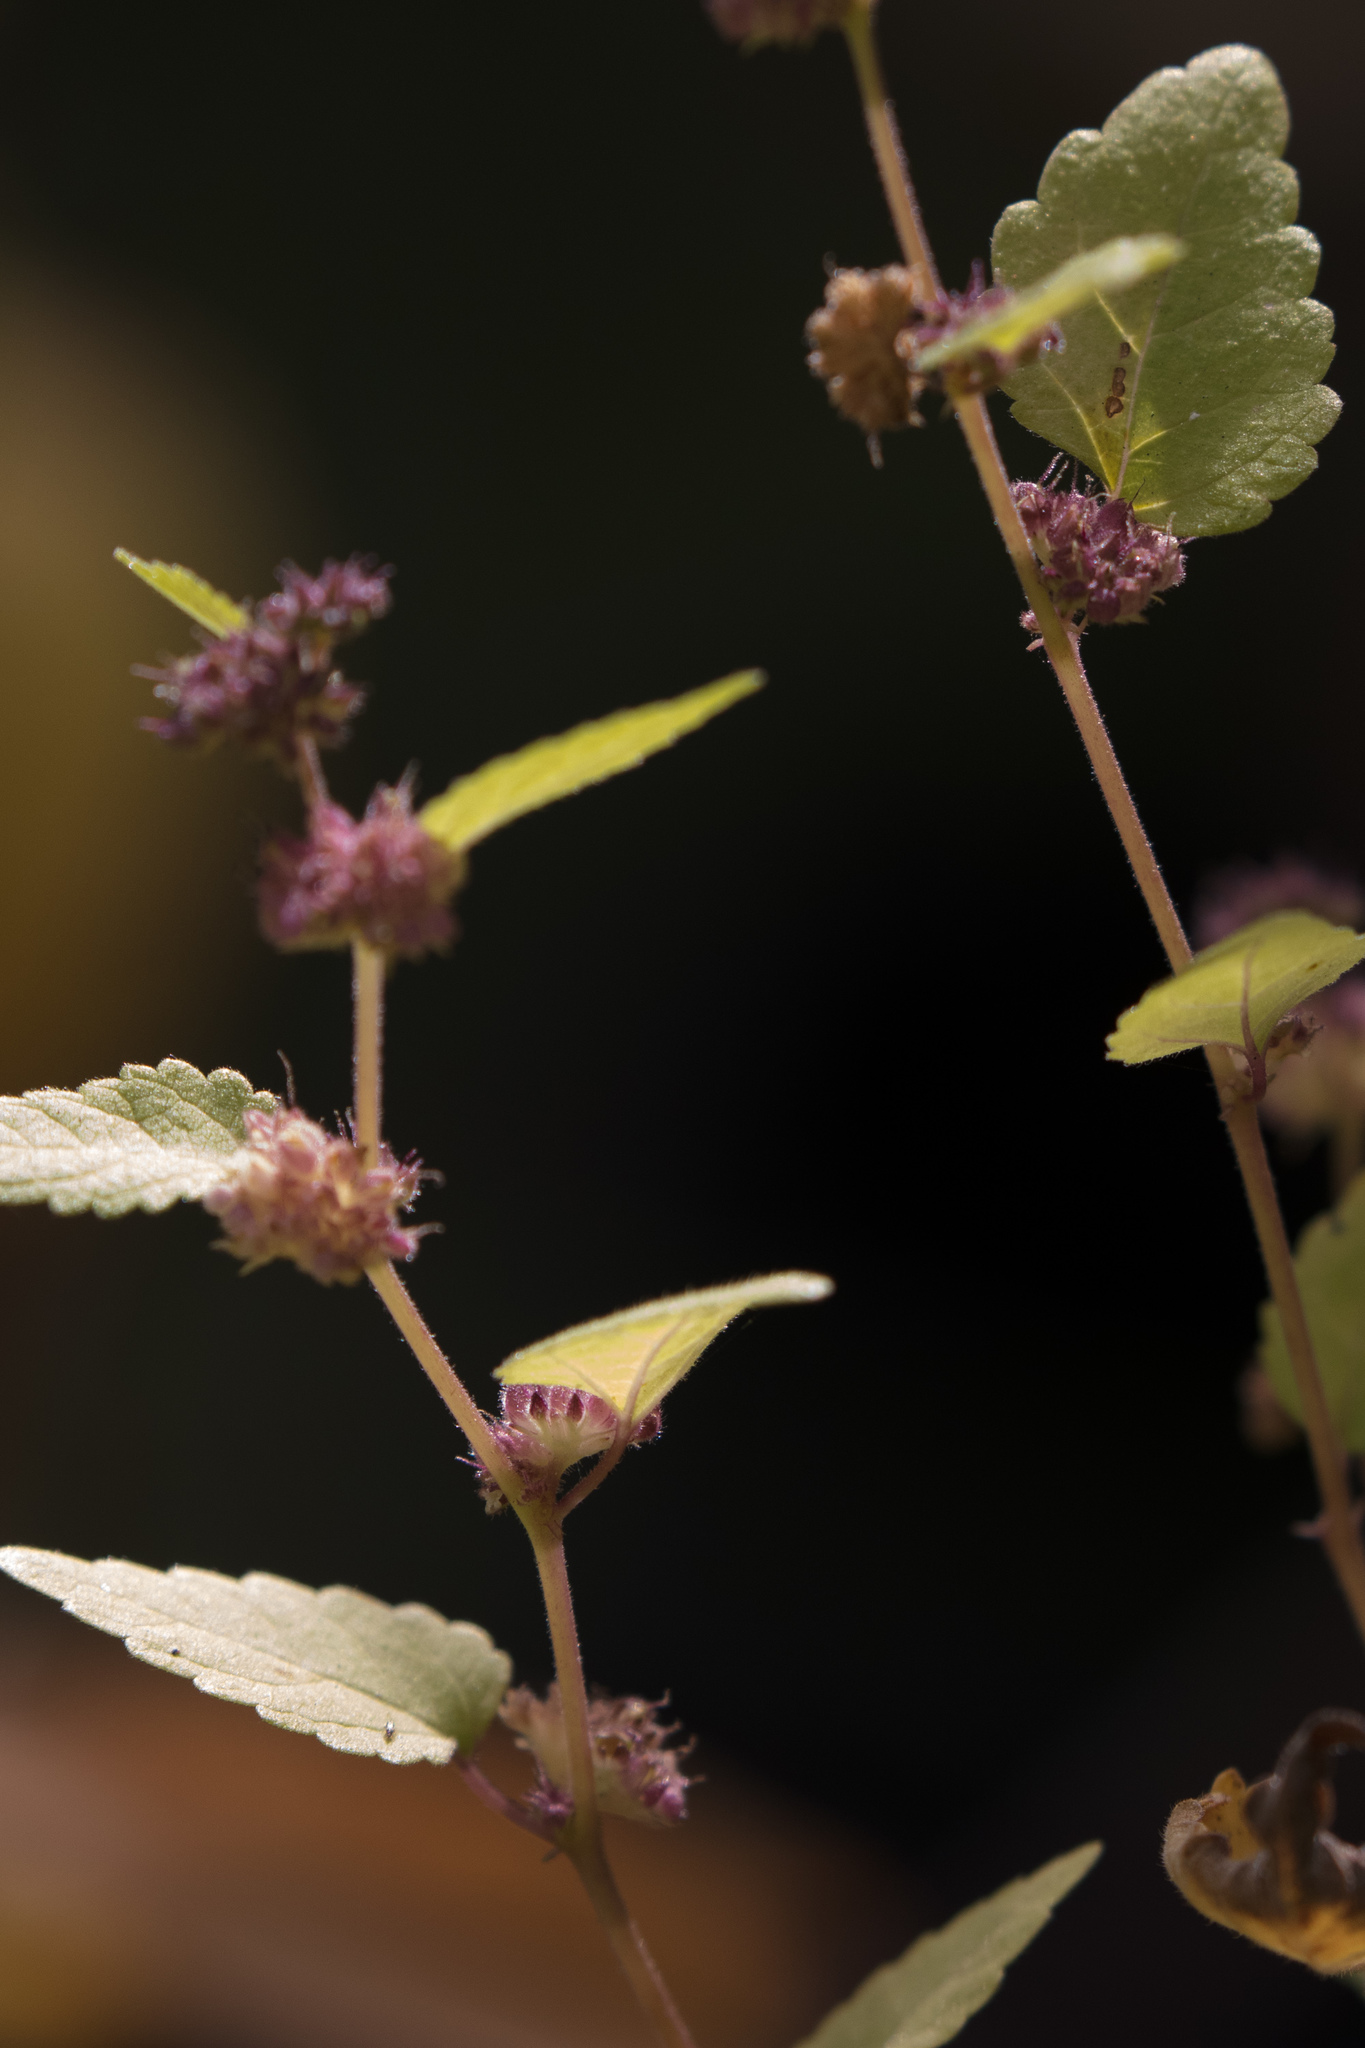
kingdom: Plantae
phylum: Tracheophyta
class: Magnoliopsida
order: Rosales
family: Moraceae
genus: Fatoua
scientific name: Fatoua villosa
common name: Hairy crabweed
